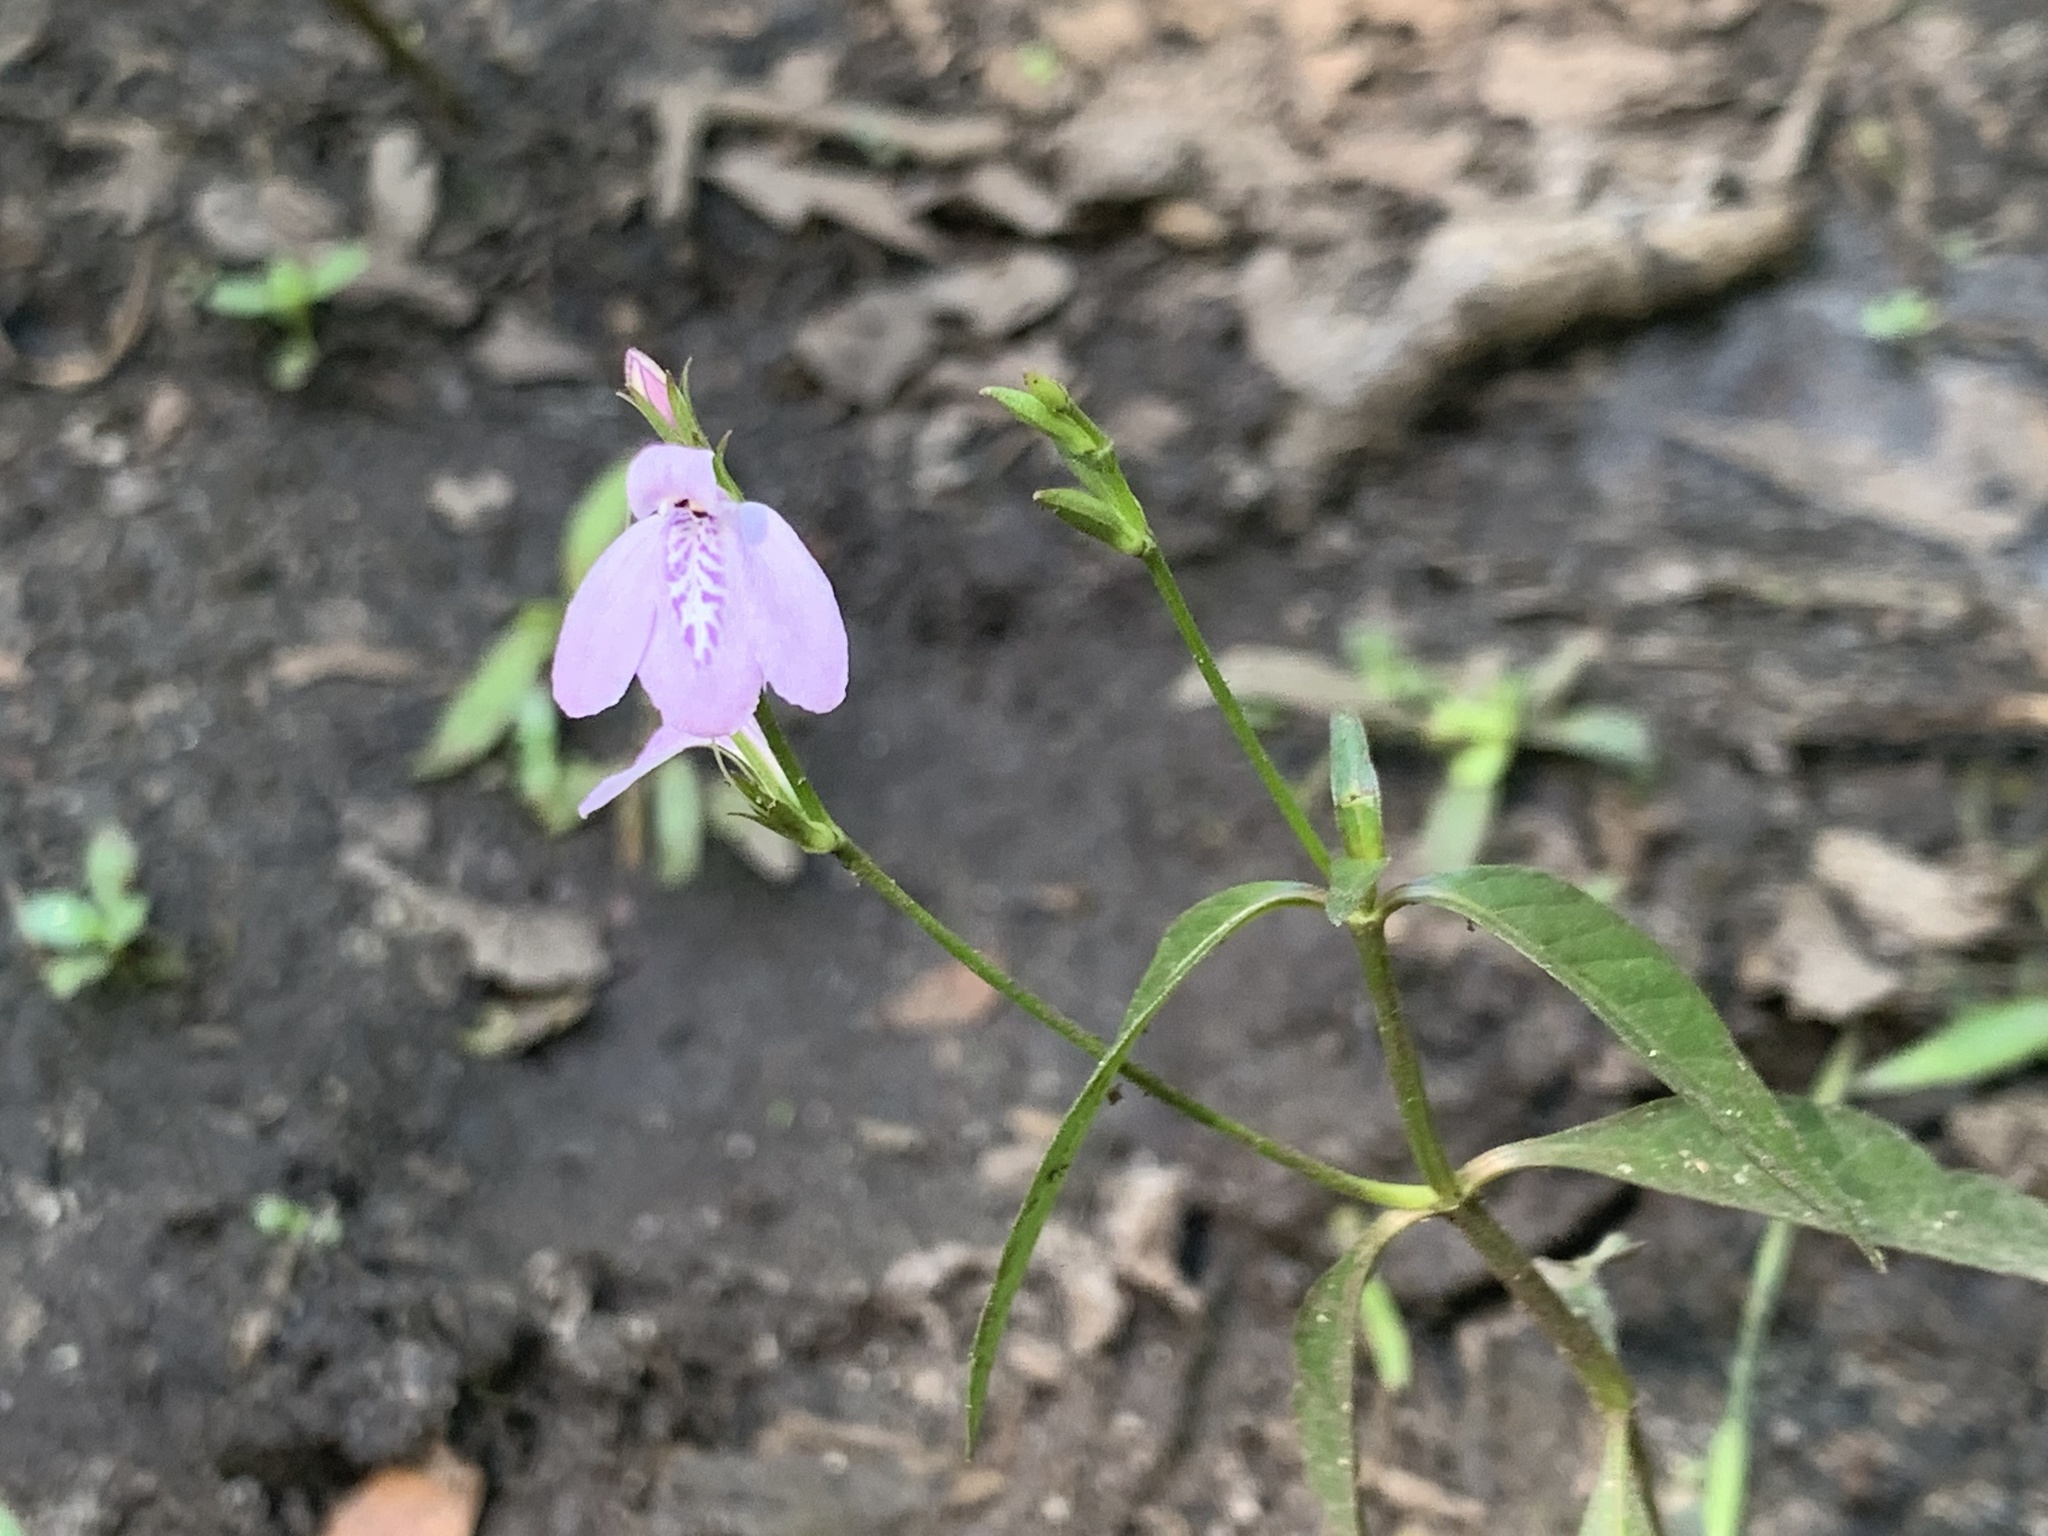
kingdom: Plantae
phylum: Tracheophyta
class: Magnoliopsida
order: Lamiales
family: Acanthaceae
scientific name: Acanthaceae
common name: Acanthaceae
